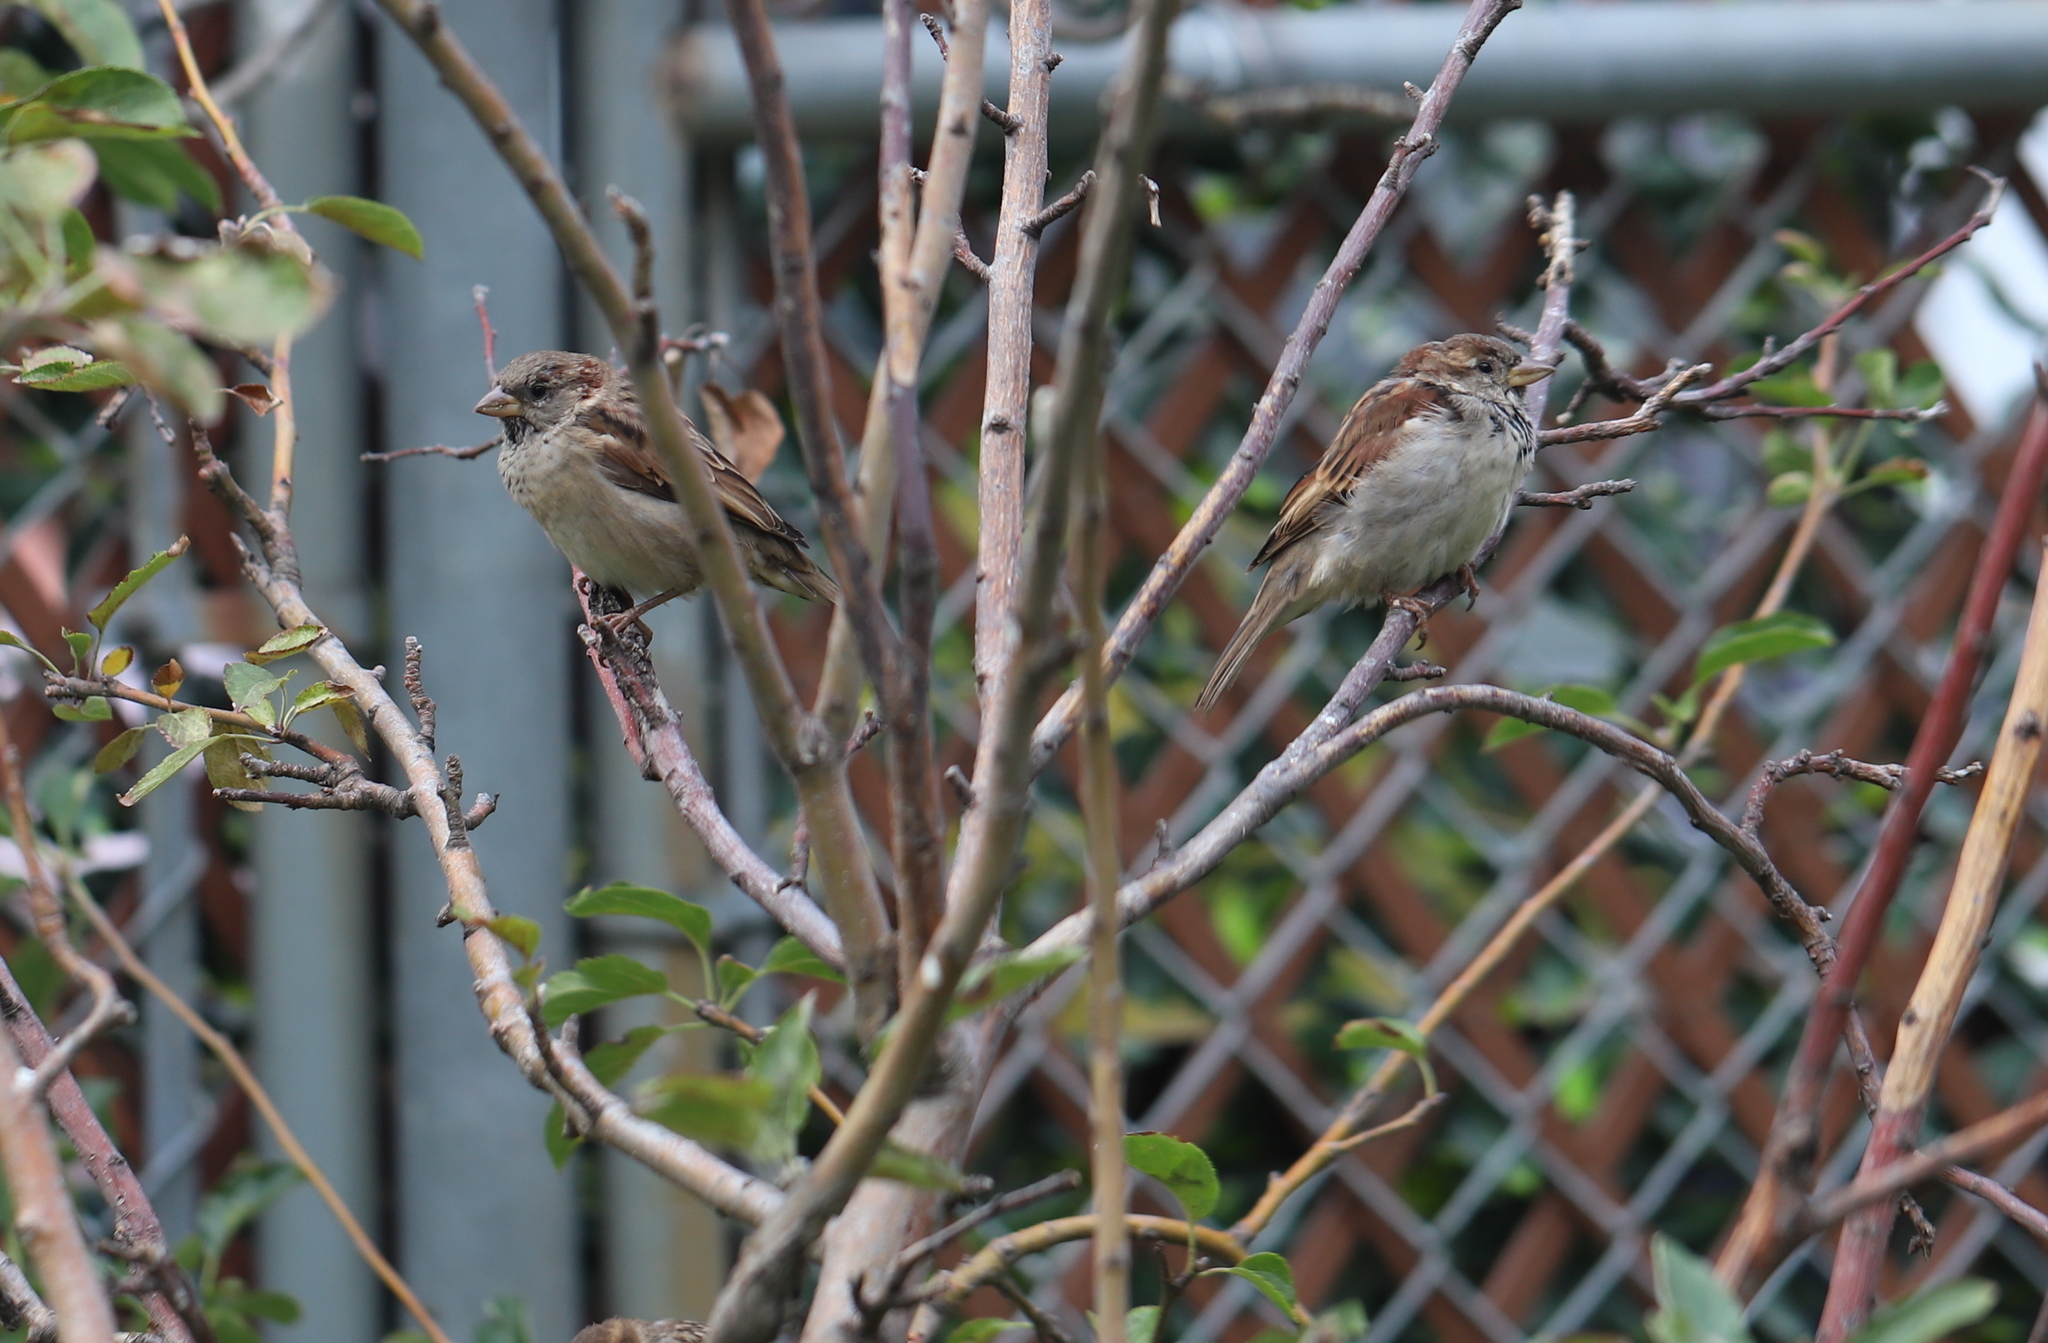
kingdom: Animalia
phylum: Chordata
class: Aves
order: Passeriformes
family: Passeridae
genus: Passer
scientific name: Passer domesticus
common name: House sparrow
